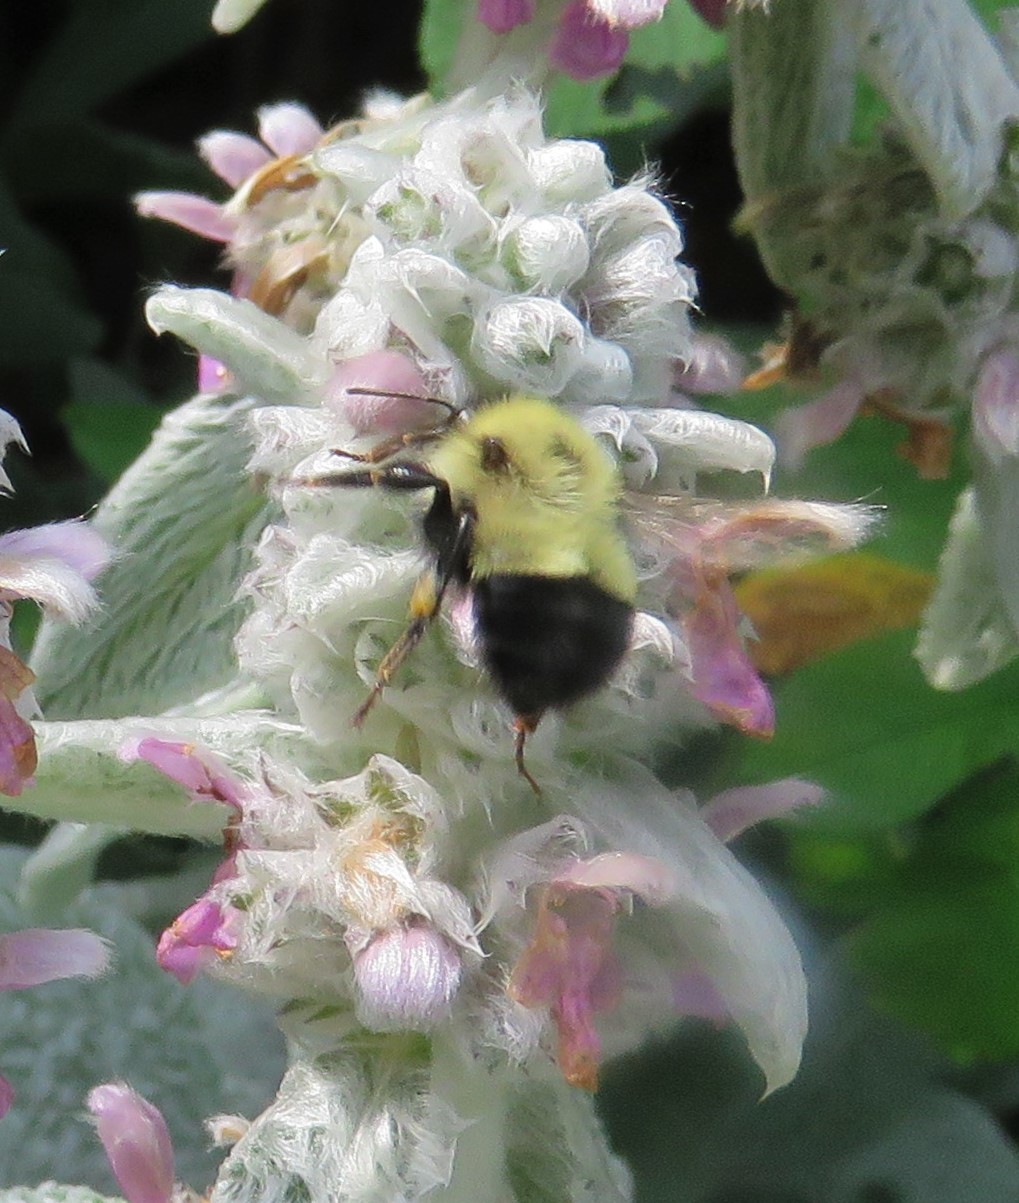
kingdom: Animalia
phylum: Arthropoda
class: Insecta
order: Hymenoptera
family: Apidae
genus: Bombus
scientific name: Bombus impatiens
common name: Common eastern bumble bee
